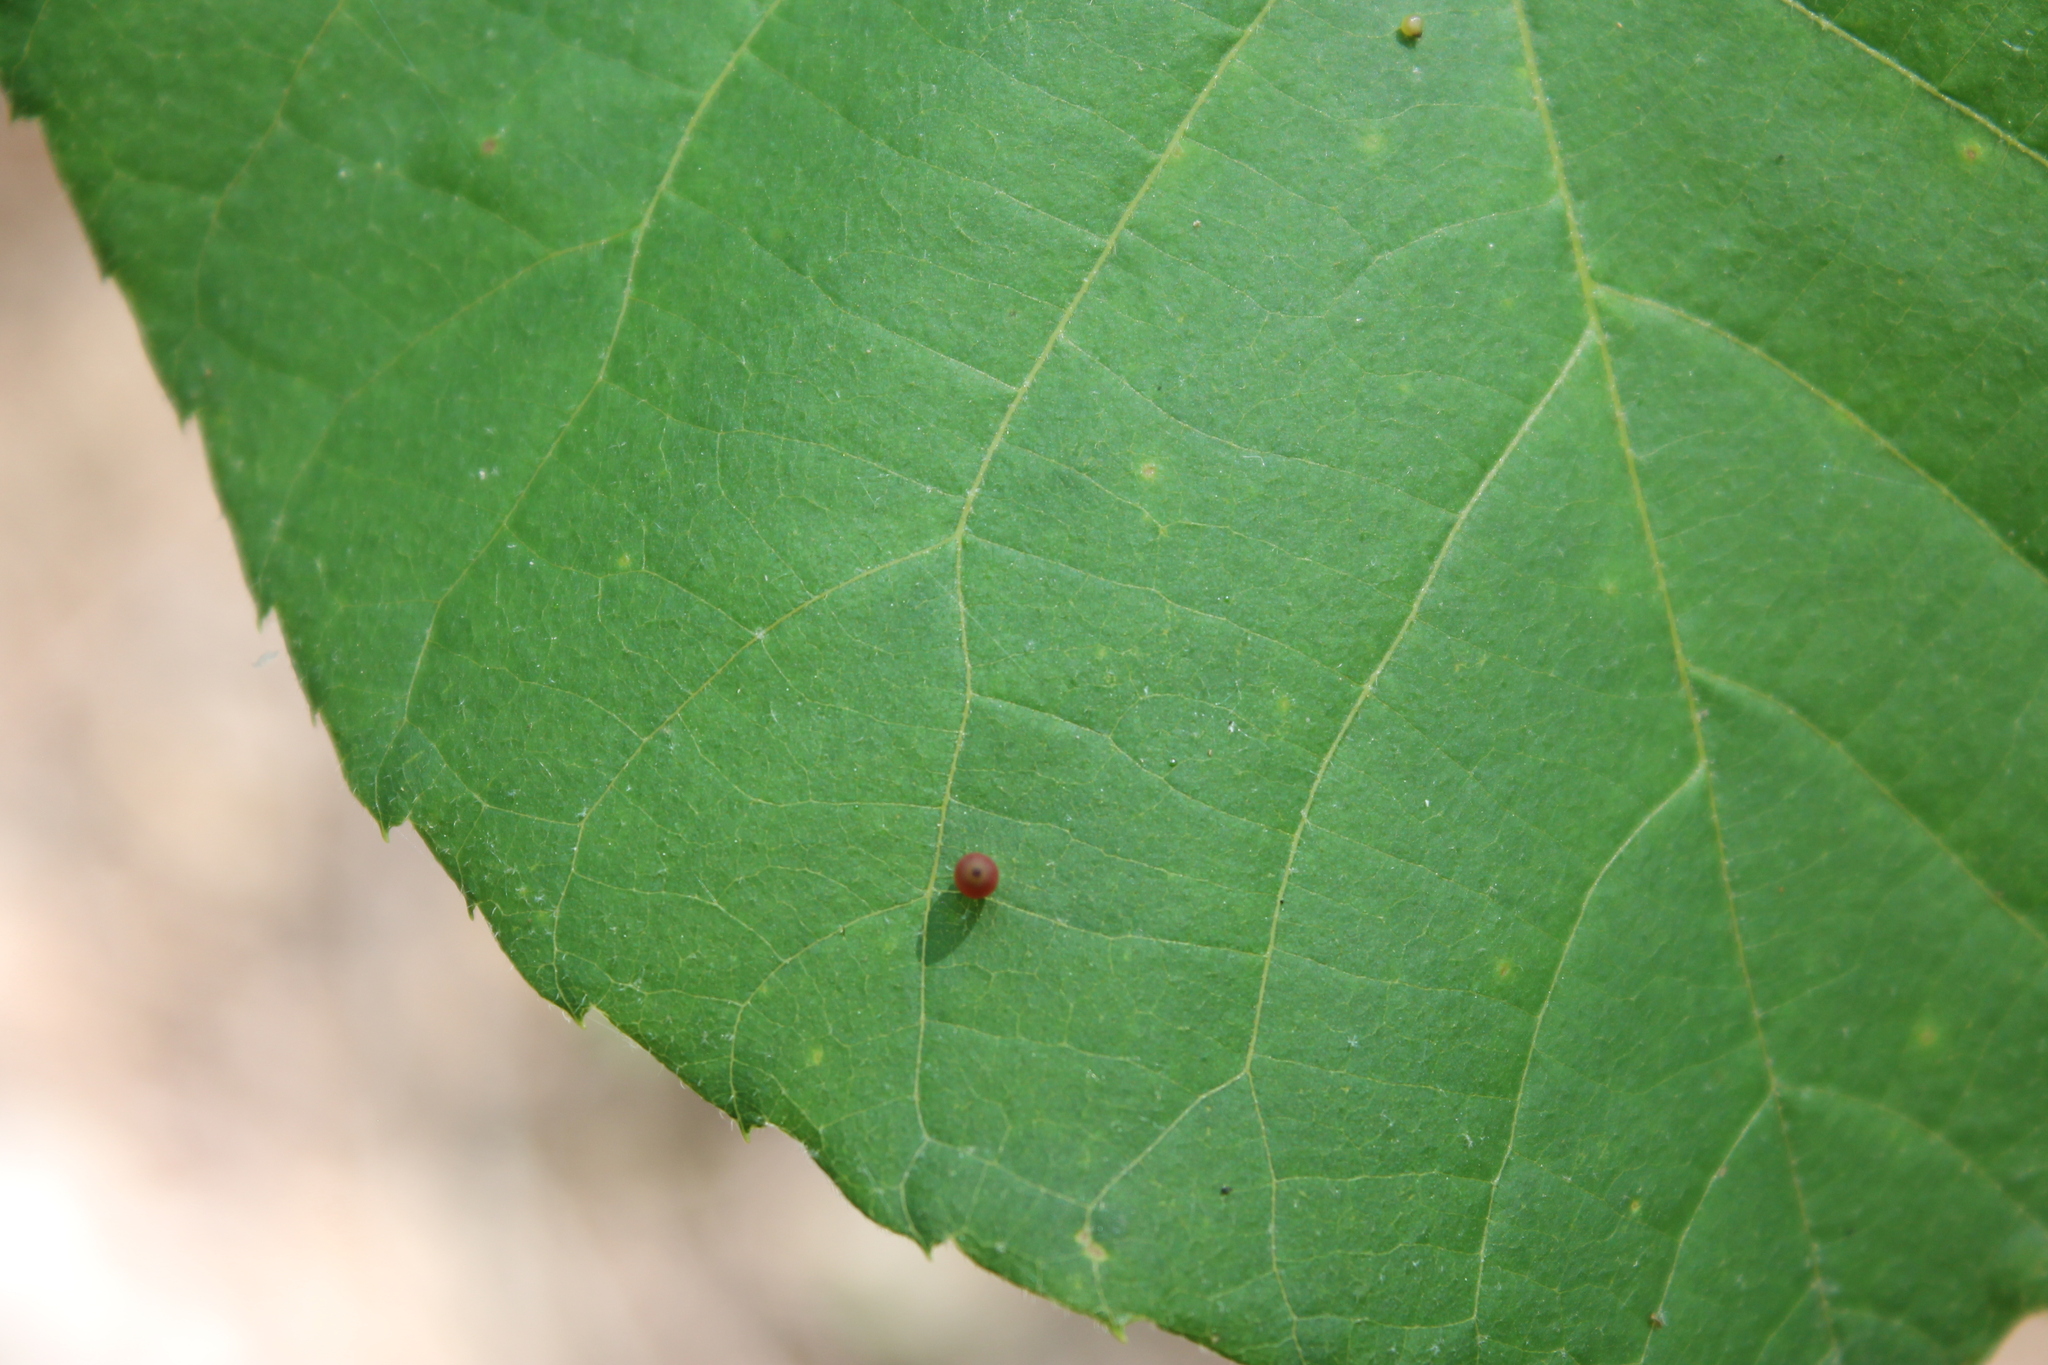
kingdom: Animalia
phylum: Arthropoda
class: Insecta
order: Diptera
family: Cecidomyiidae
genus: Caryomyia
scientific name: Caryomyia urnula
